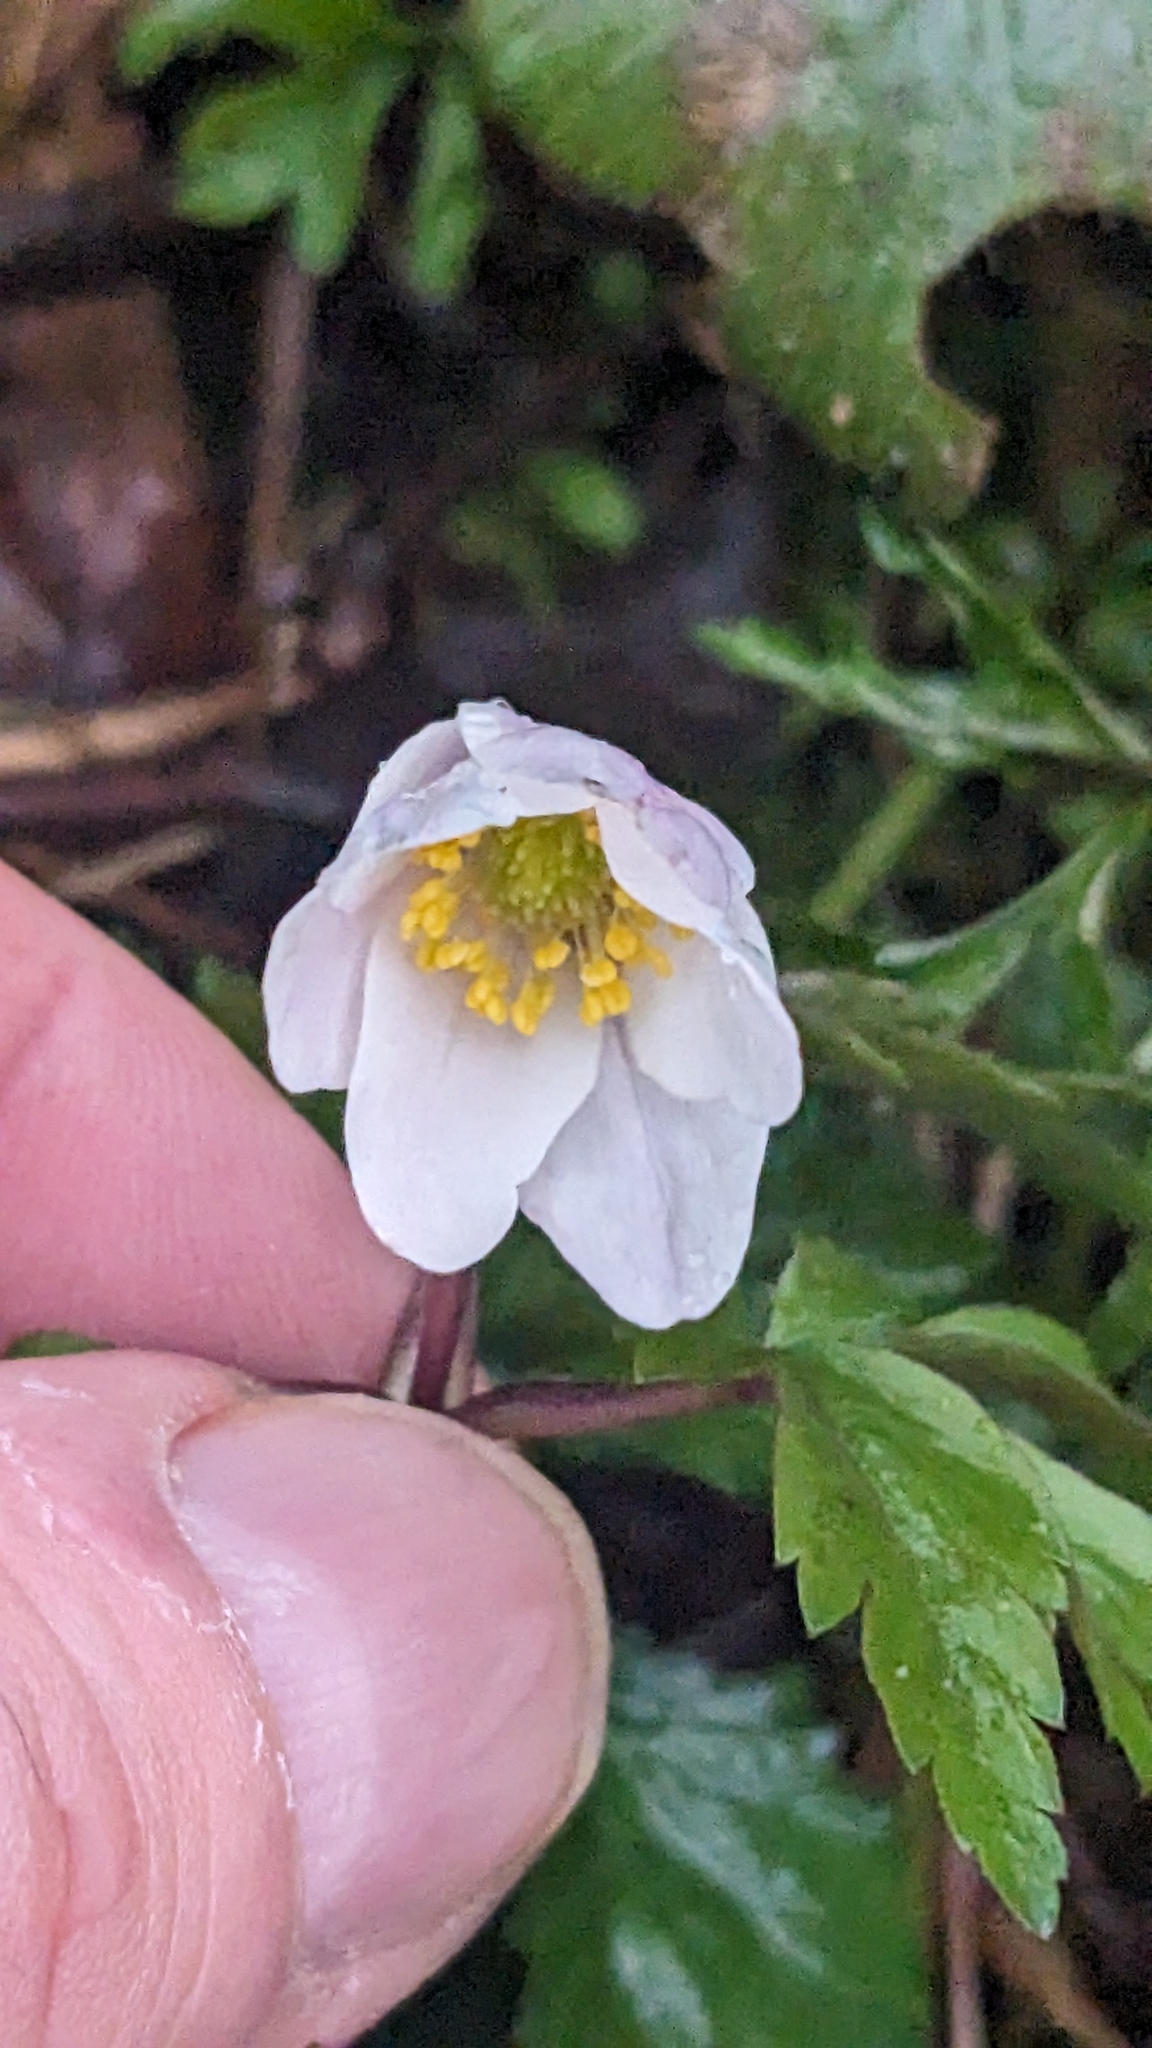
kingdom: Plantae
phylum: Tracheophyta
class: Magnoliopsida
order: Ranunculales
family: Ranunculaceae
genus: Anemone
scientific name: Anemone nemorosa
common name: Wood anemone
